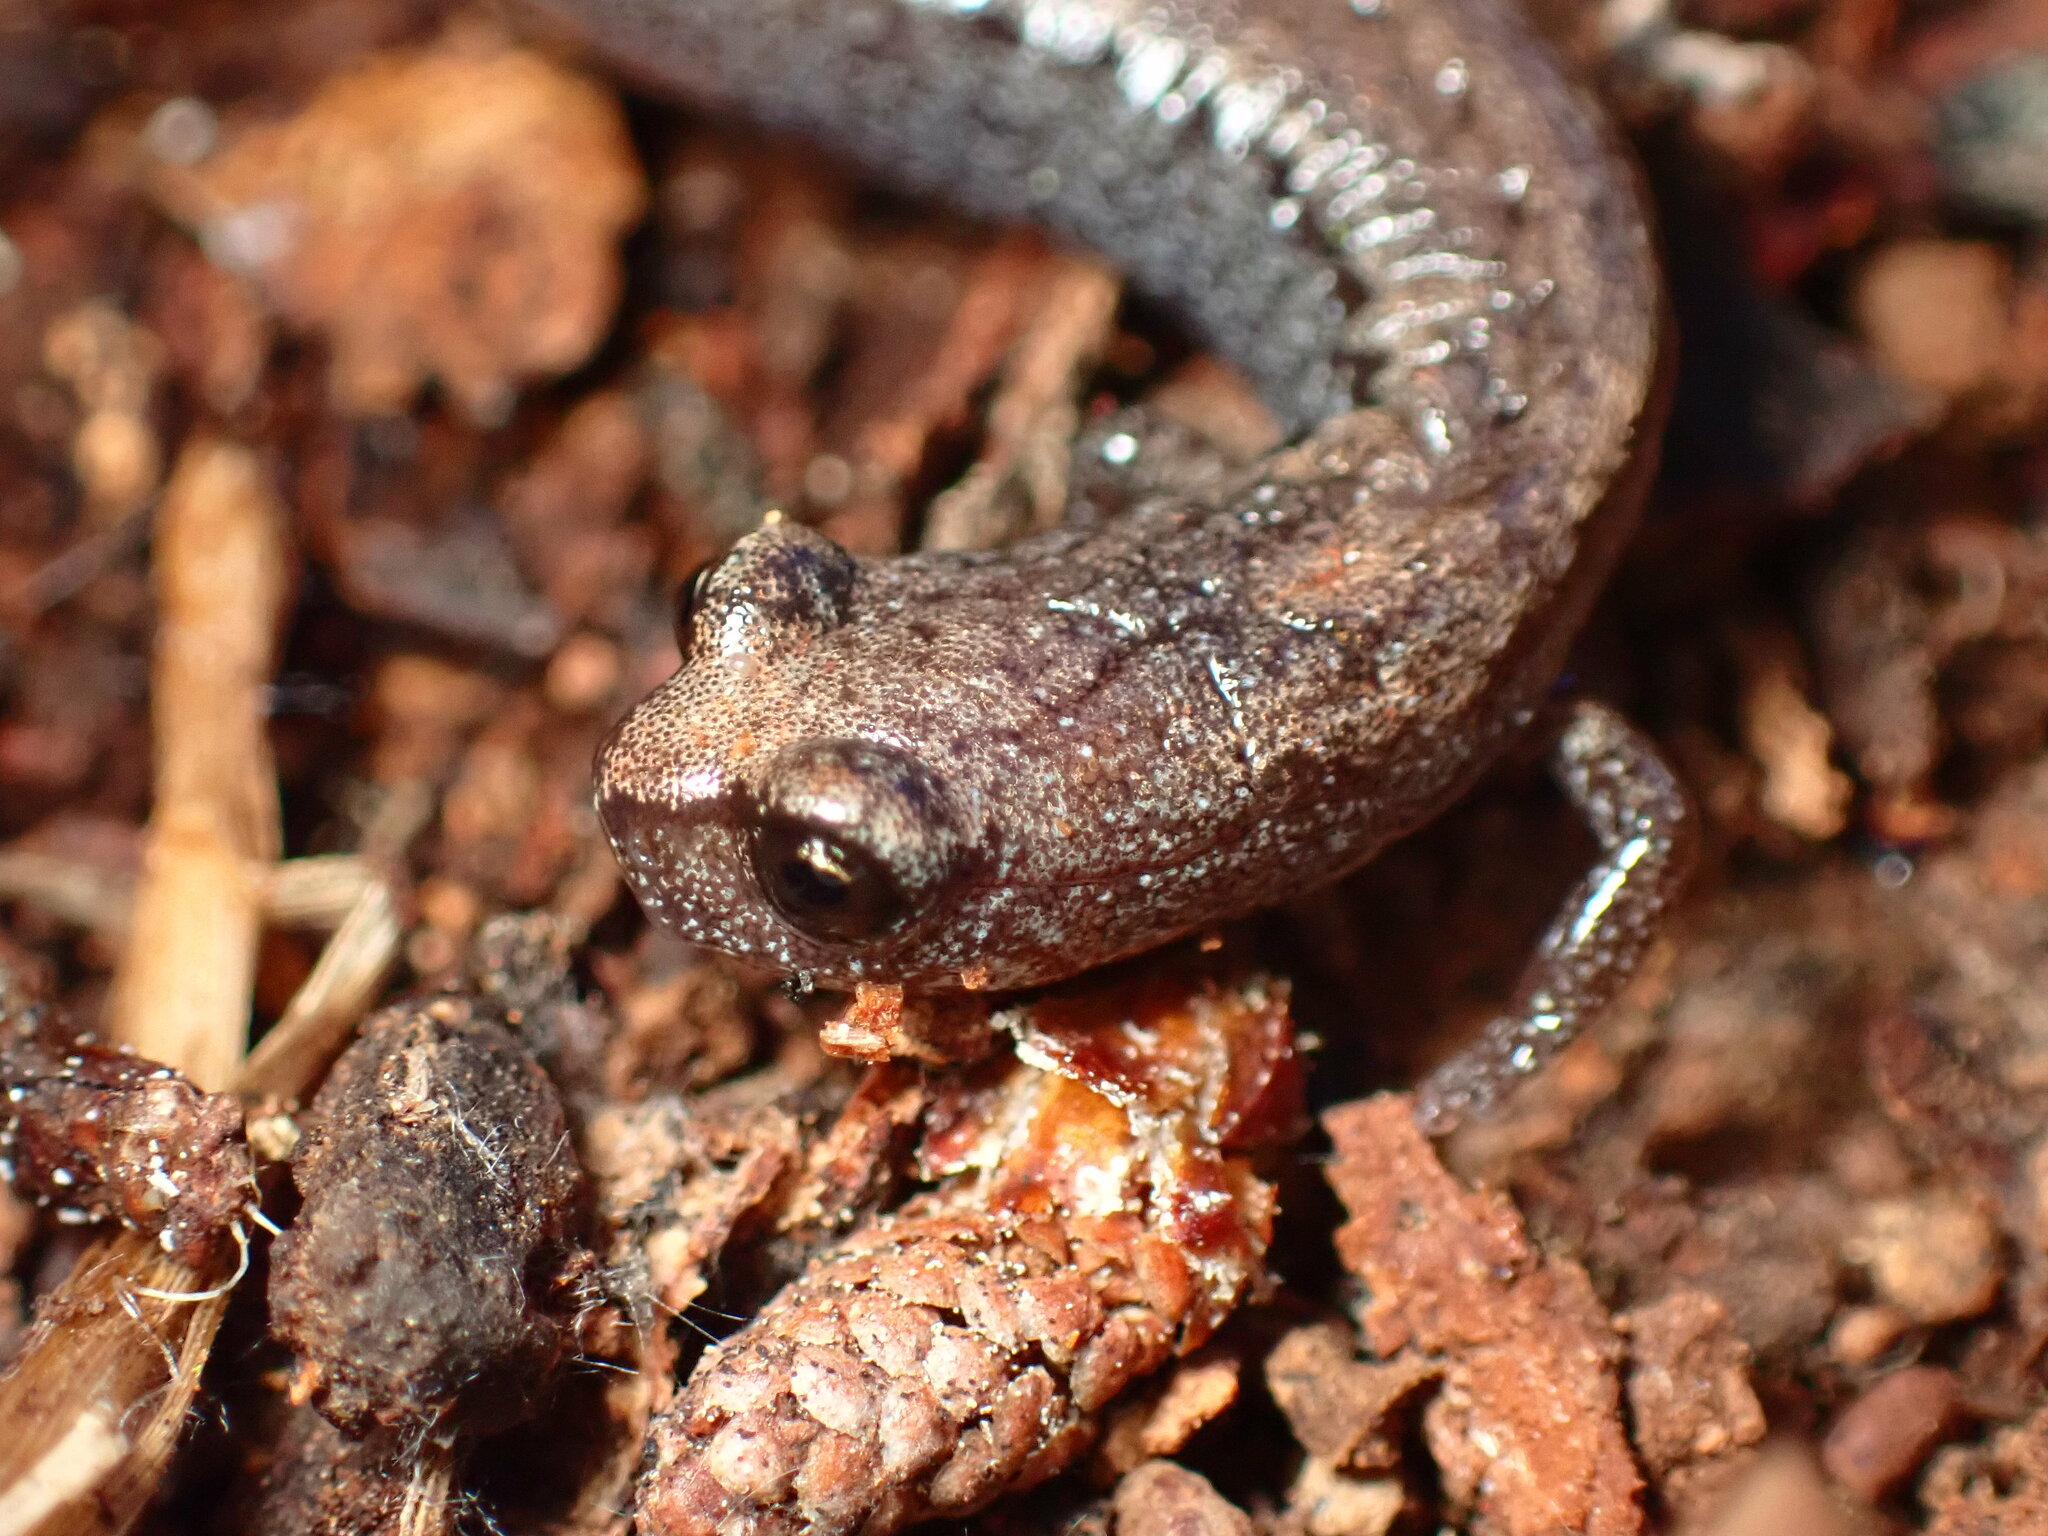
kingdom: Animalia
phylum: Chordata
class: Amphibia
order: Caudata
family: Plethodontidae
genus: Batrachoseps
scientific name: Batrachoseps luciae
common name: Santa lucia mountains slender salamander
